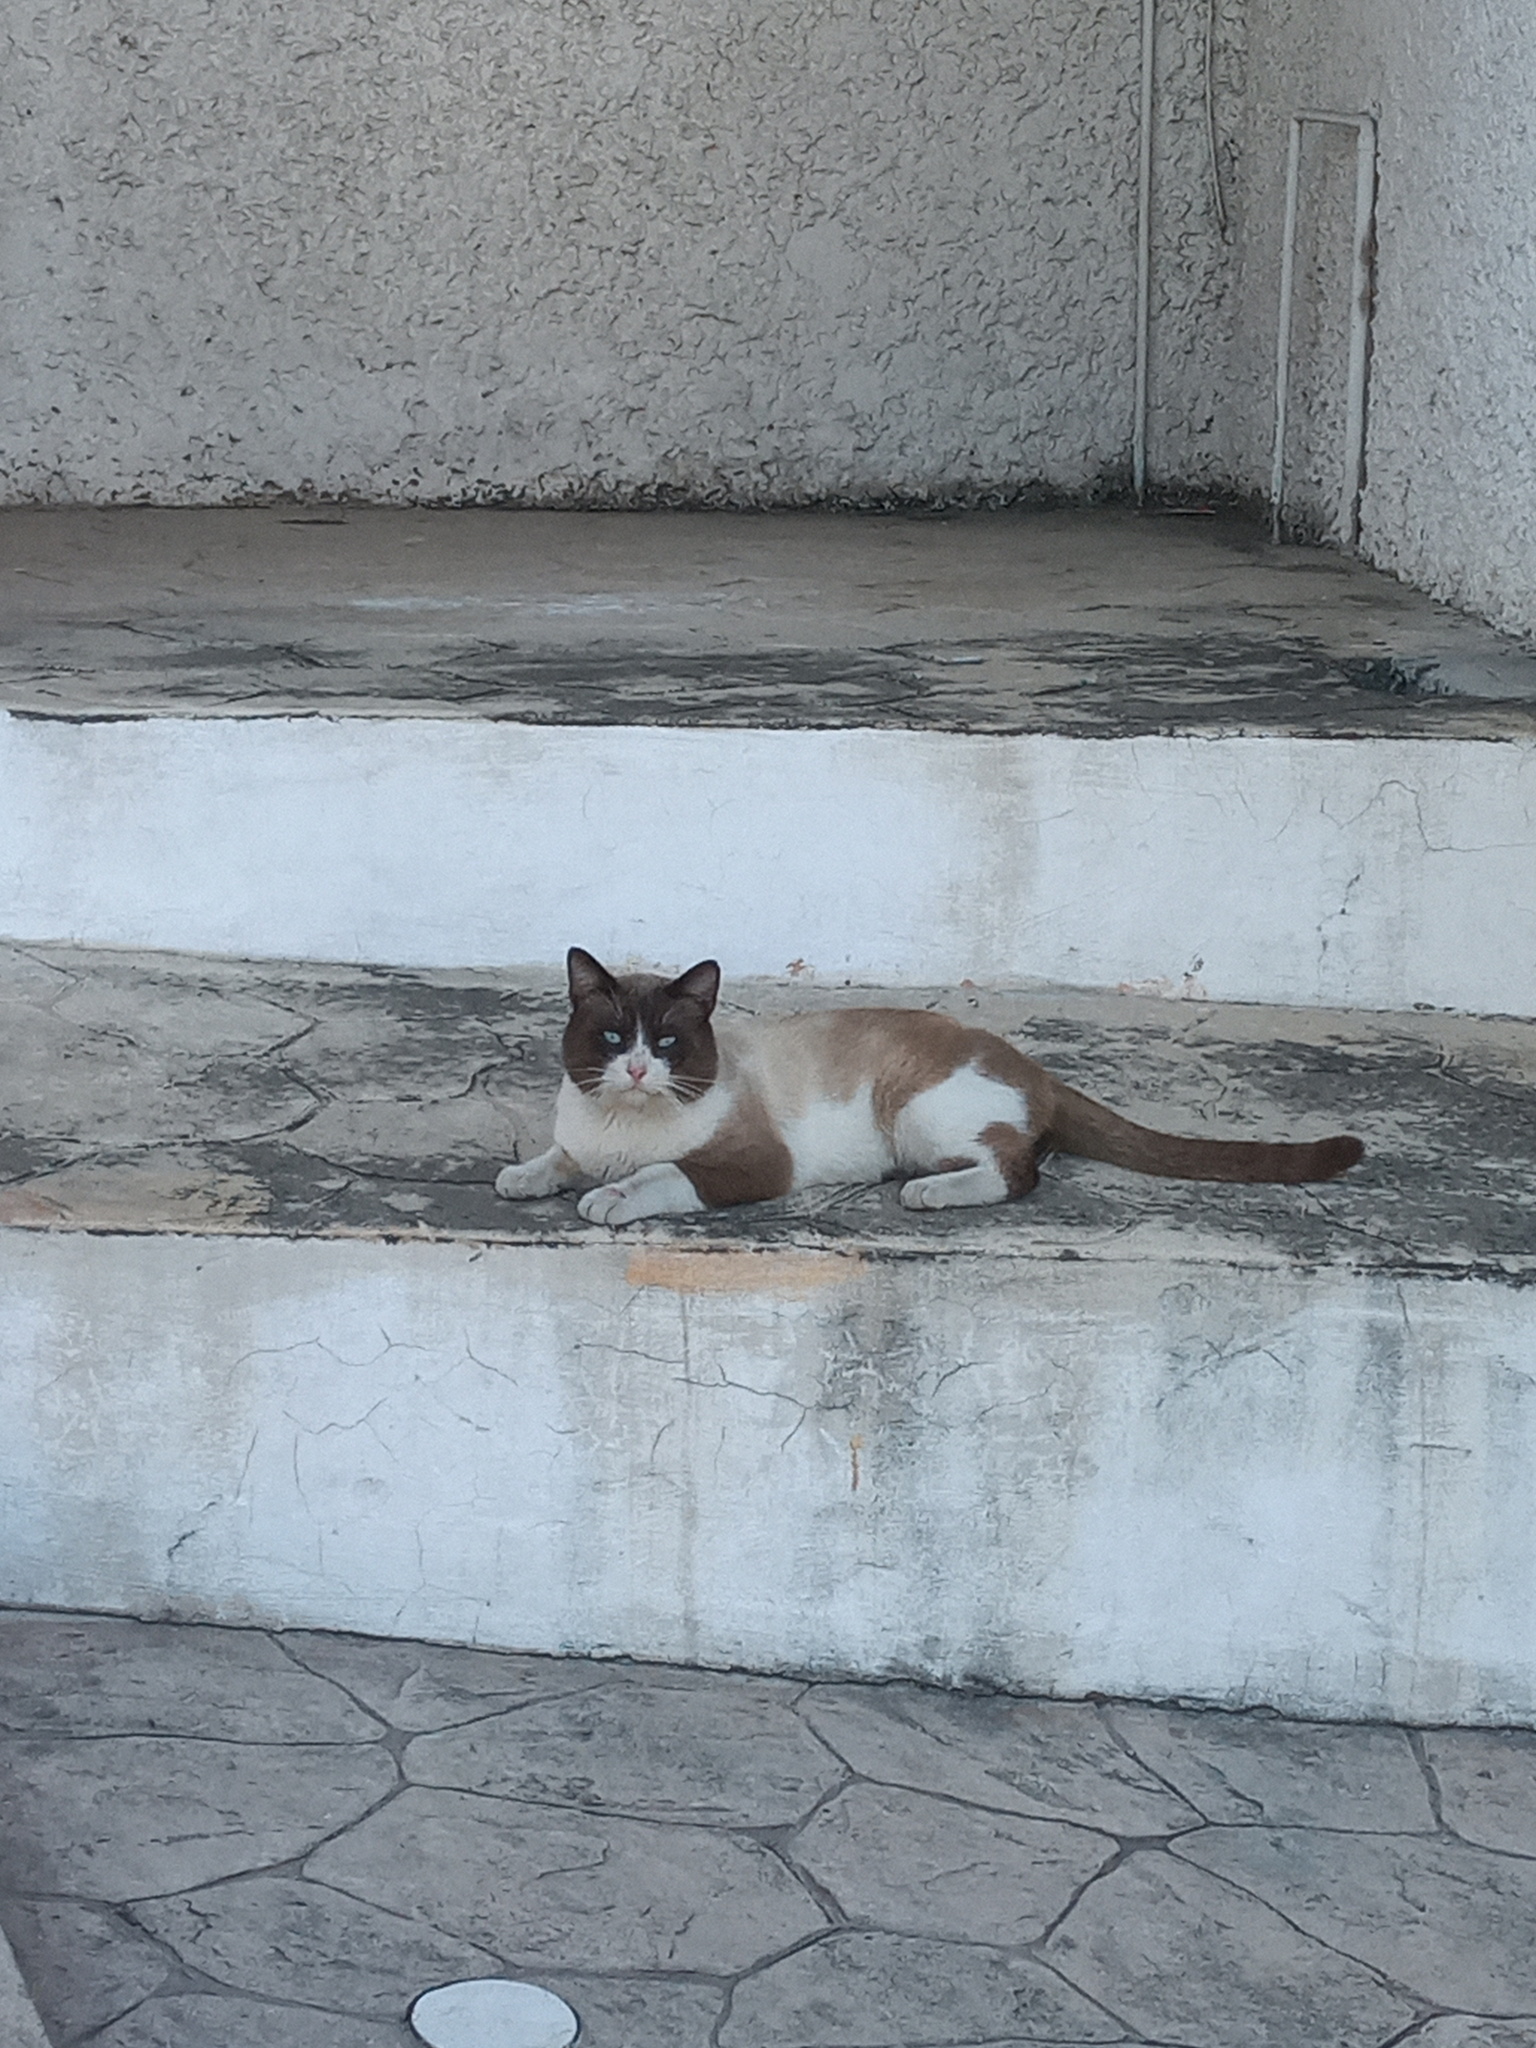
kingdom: Animalia
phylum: Chordata
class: Mammalia
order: Carnivora
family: Felidae
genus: Felis
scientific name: Felis catus
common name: Domestic cat
